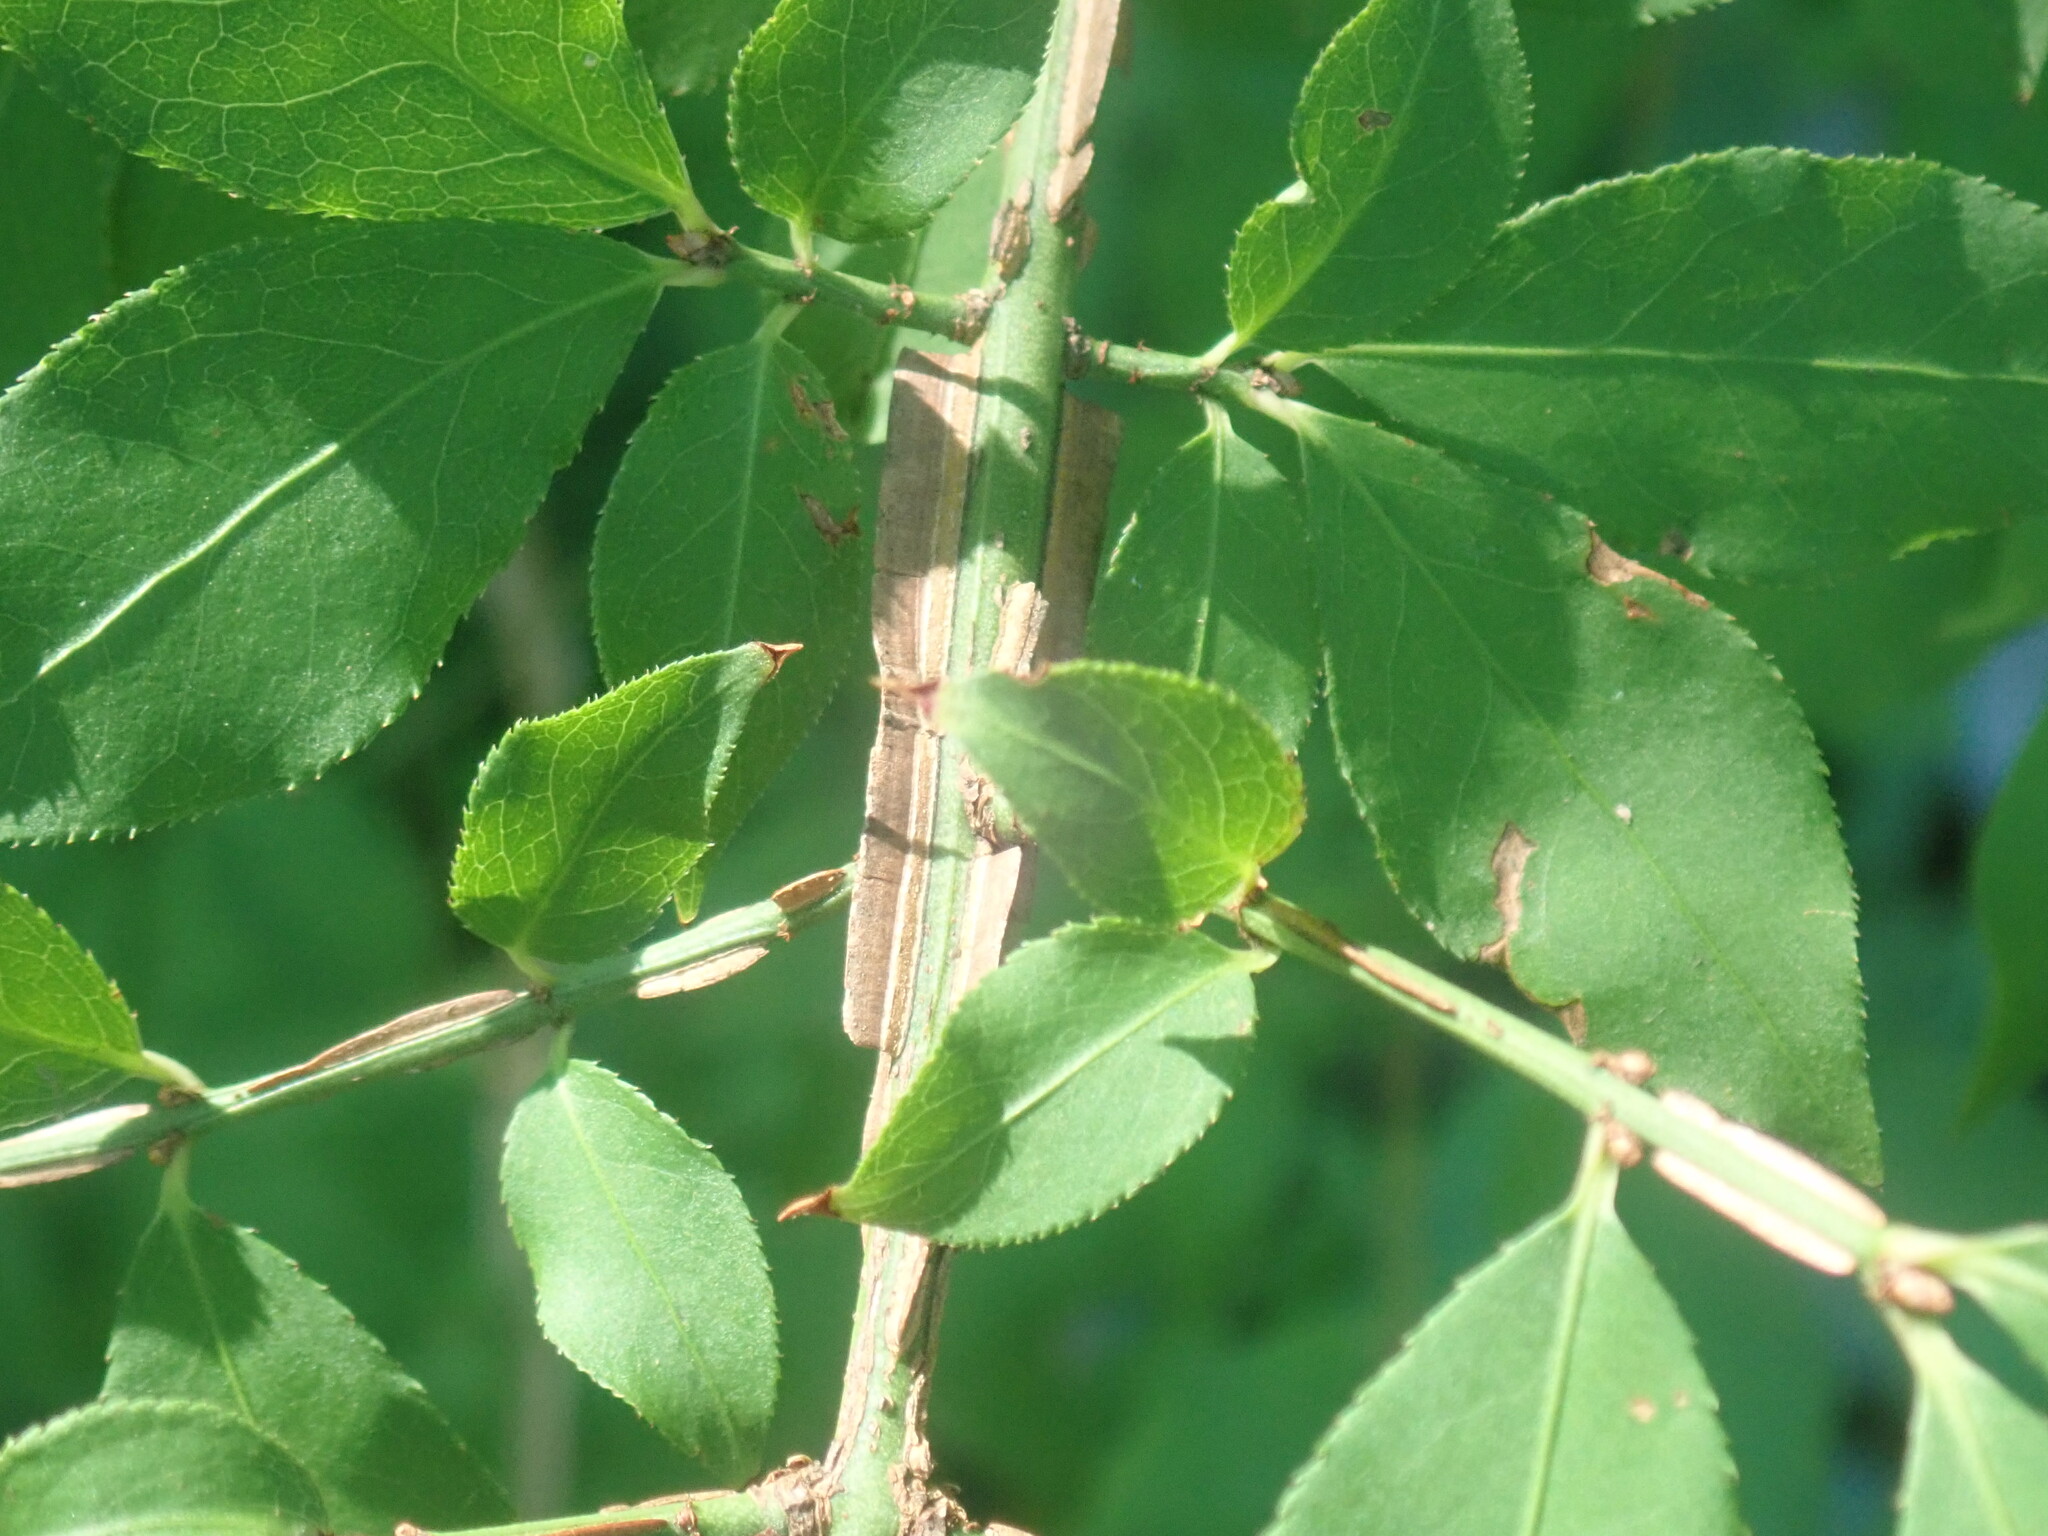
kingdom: Plantae
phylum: Tracheophyta
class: Magnoliopsida
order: Celastrales
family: Celastraceae
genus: Euonymus
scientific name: Euonymus alatus
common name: Winged euonymus
